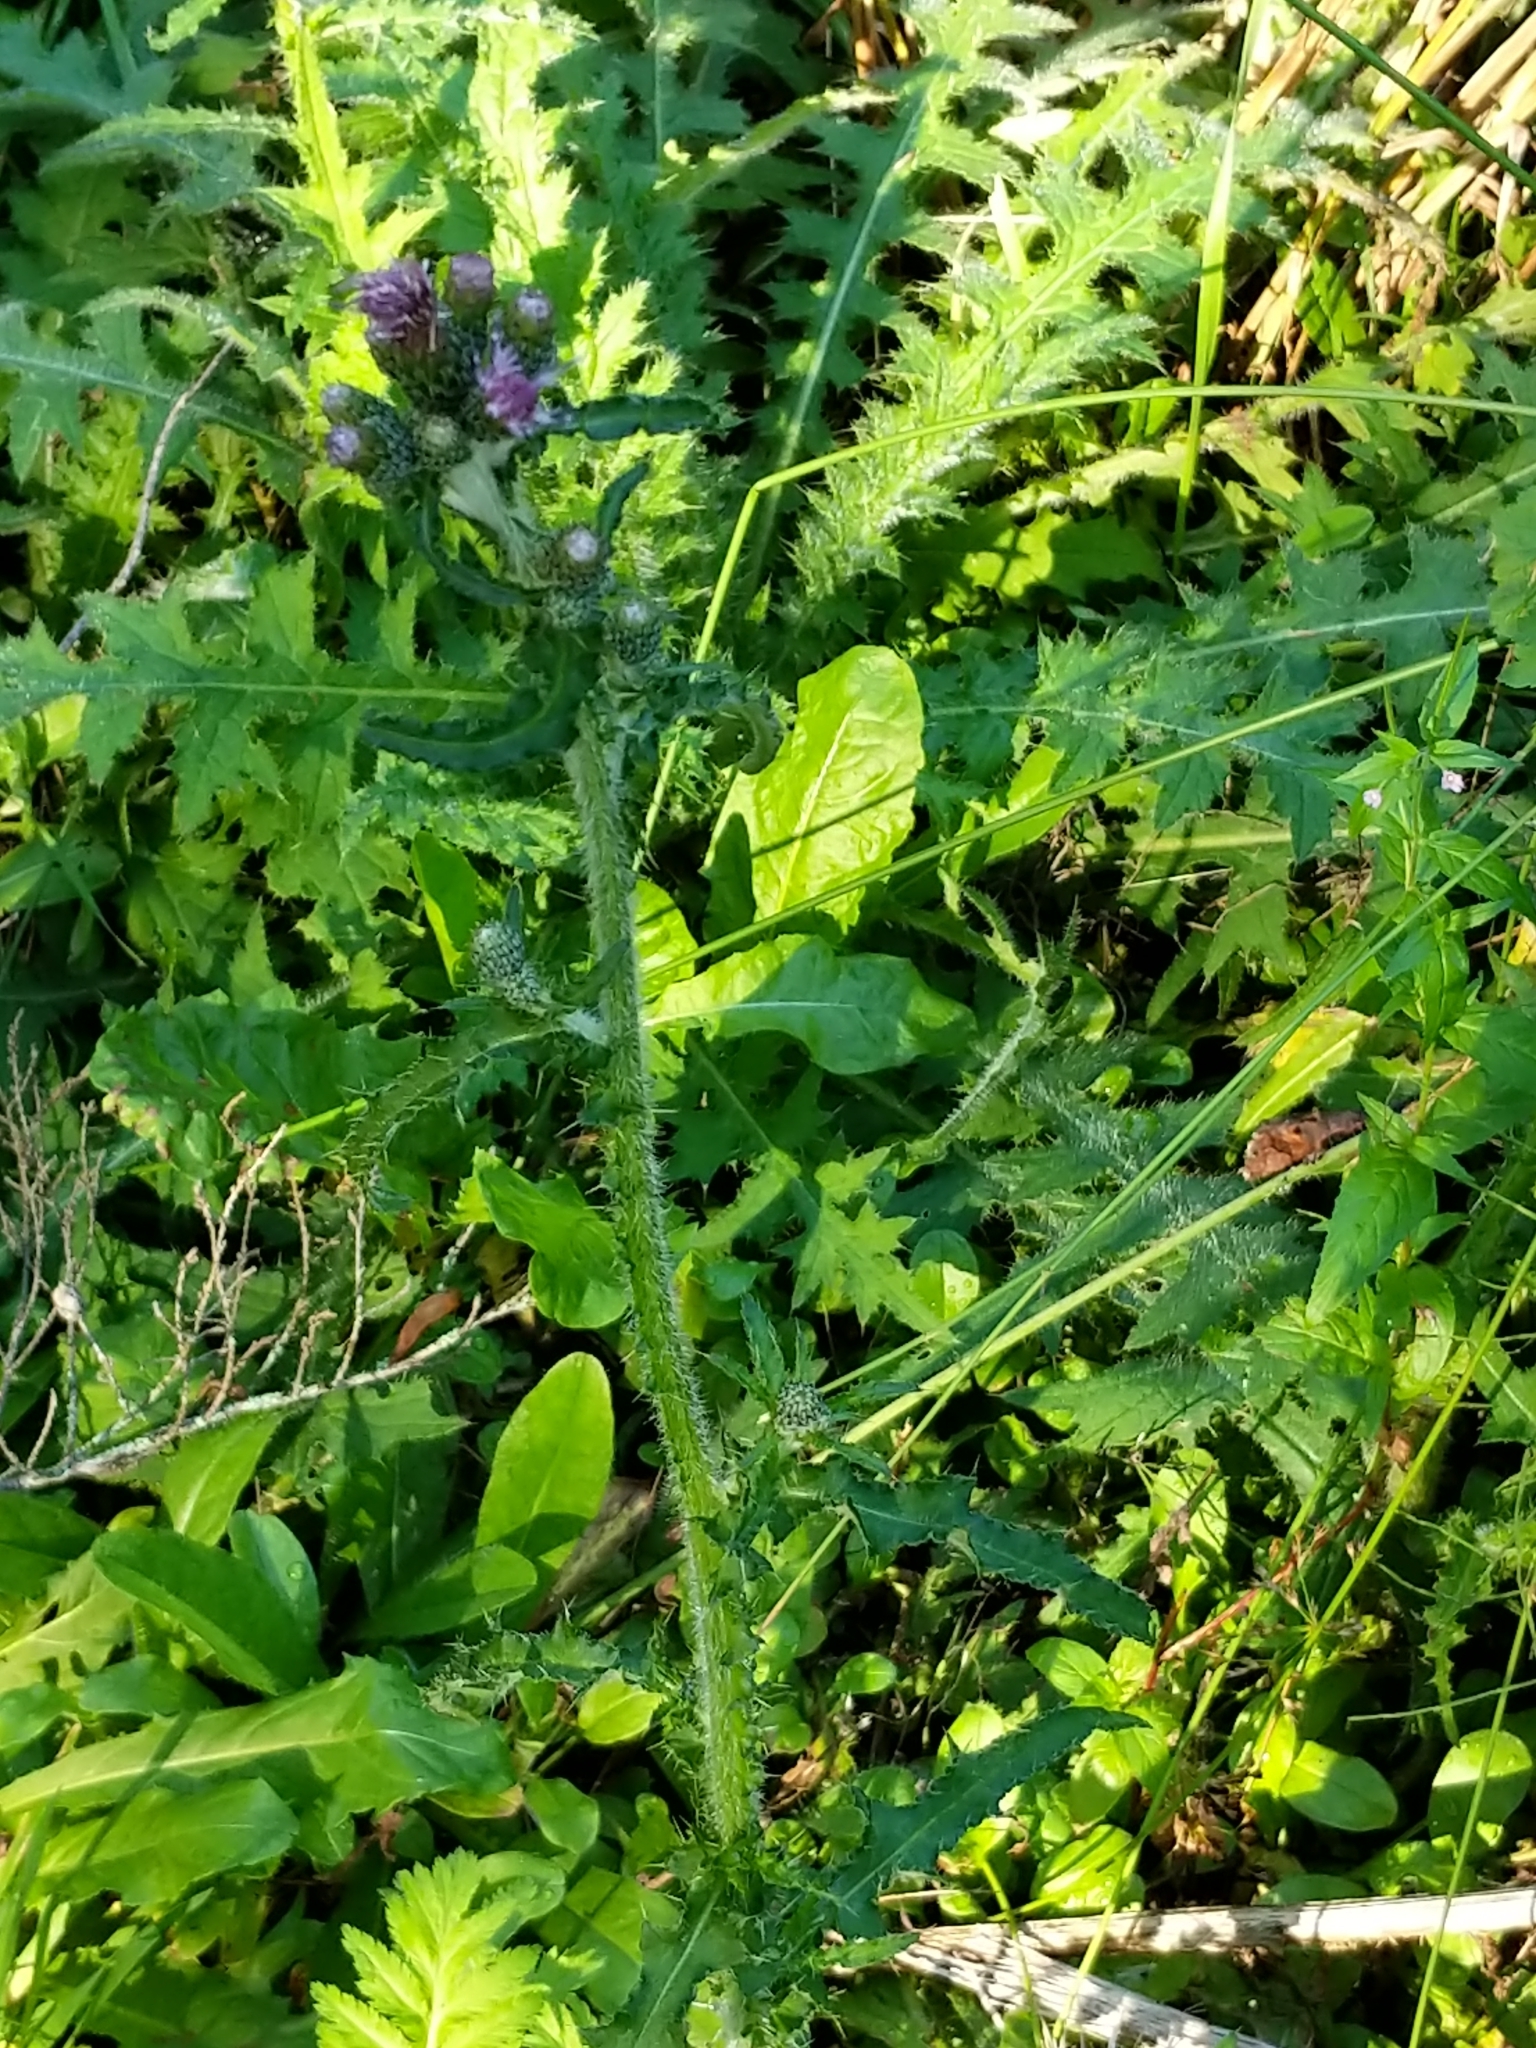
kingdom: Plantae
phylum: Tracheophyta
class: Magnoliopsida
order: Asterales
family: Asteraceae
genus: Cirsium
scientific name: Cirsium palustre
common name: Marsh thistle
